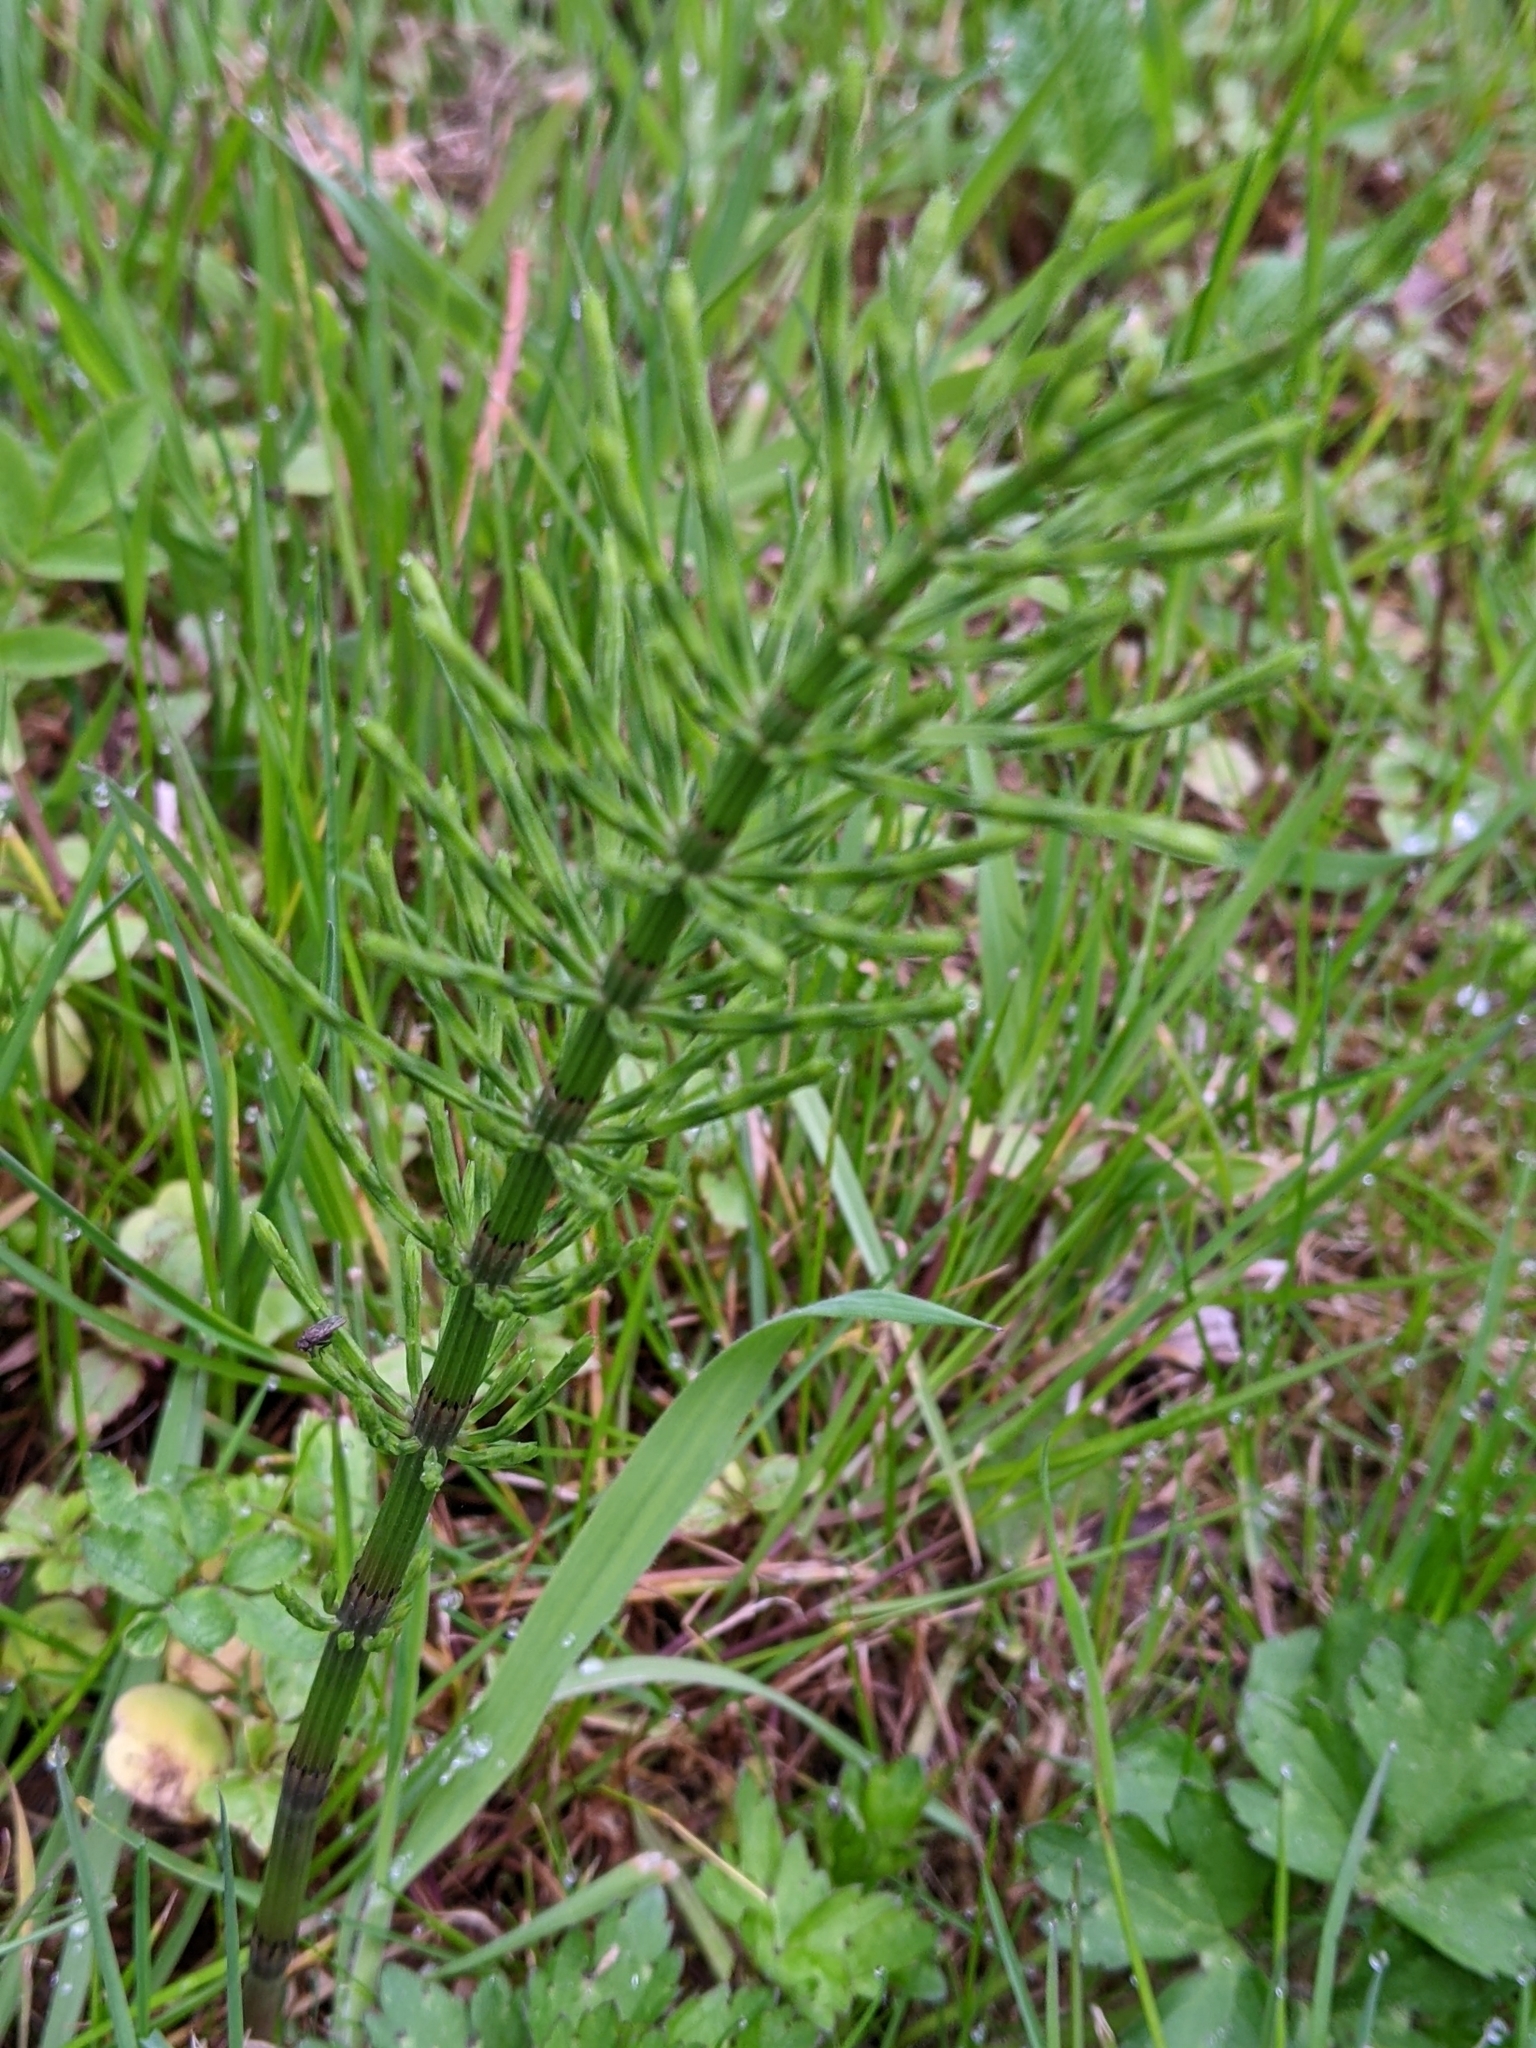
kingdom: Plantae
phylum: Tracheophyta
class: Polypodiopsida
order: Equisetales
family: Equisetaceae
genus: Equisetum
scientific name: Equisetum arvense
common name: Field horsetail
